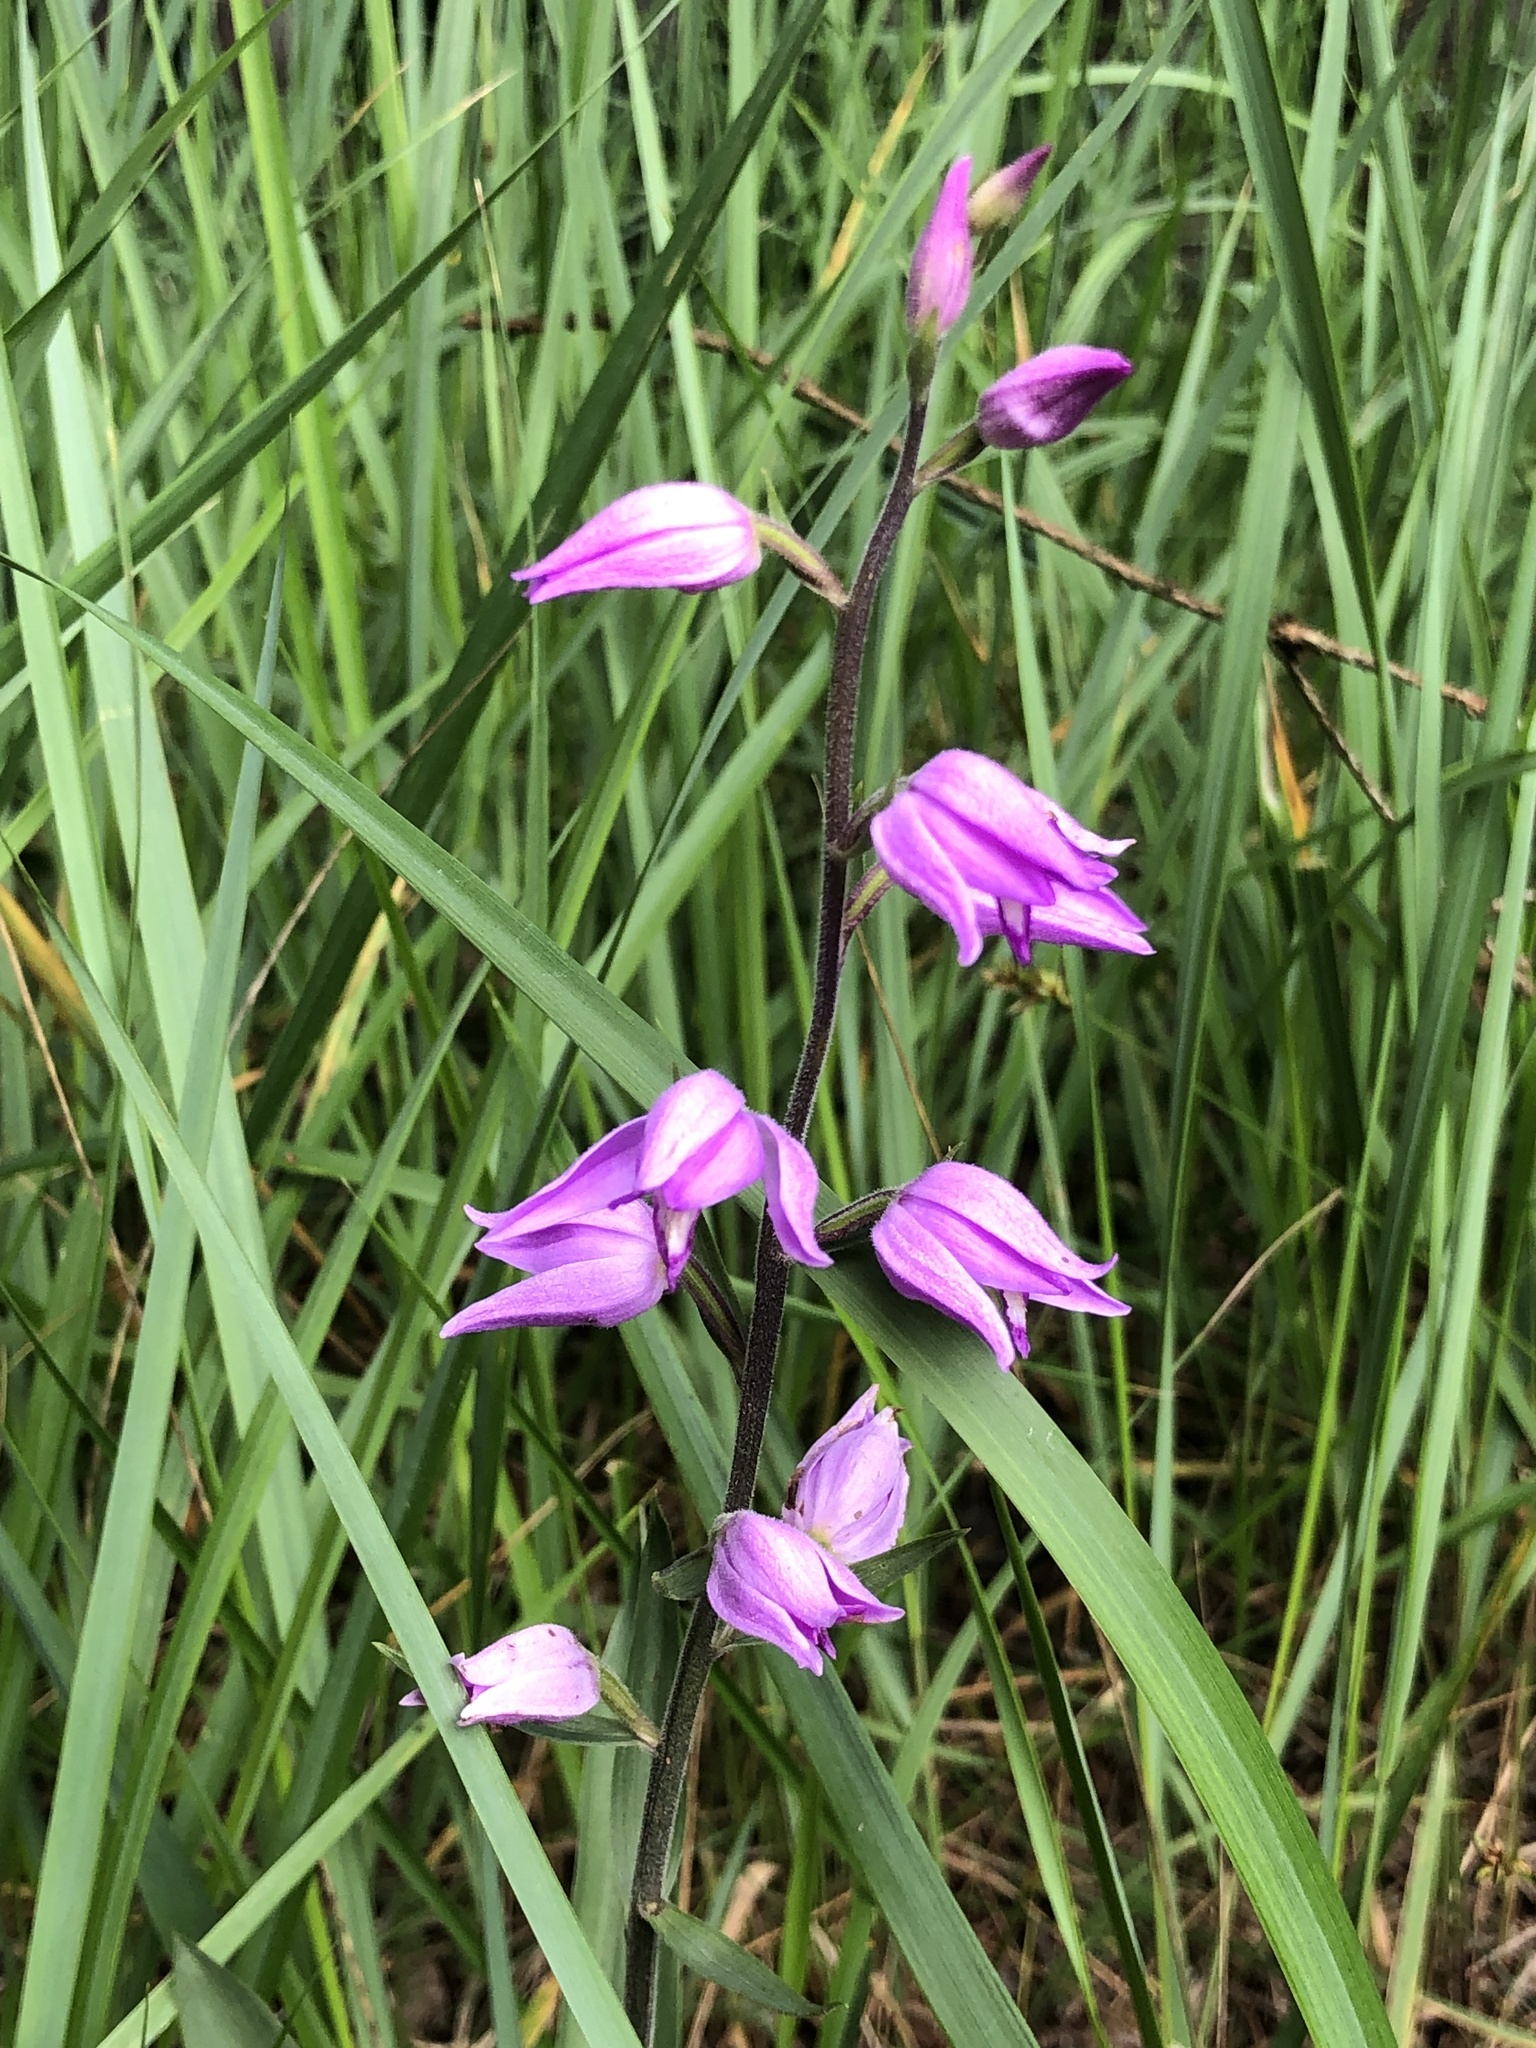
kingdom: Plantae
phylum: Tracheophyta
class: Liliopsida
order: Asparagales
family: Orchidaceae
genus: Cephalanthera
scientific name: Cephalanthera rubra
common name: Red helleborine
